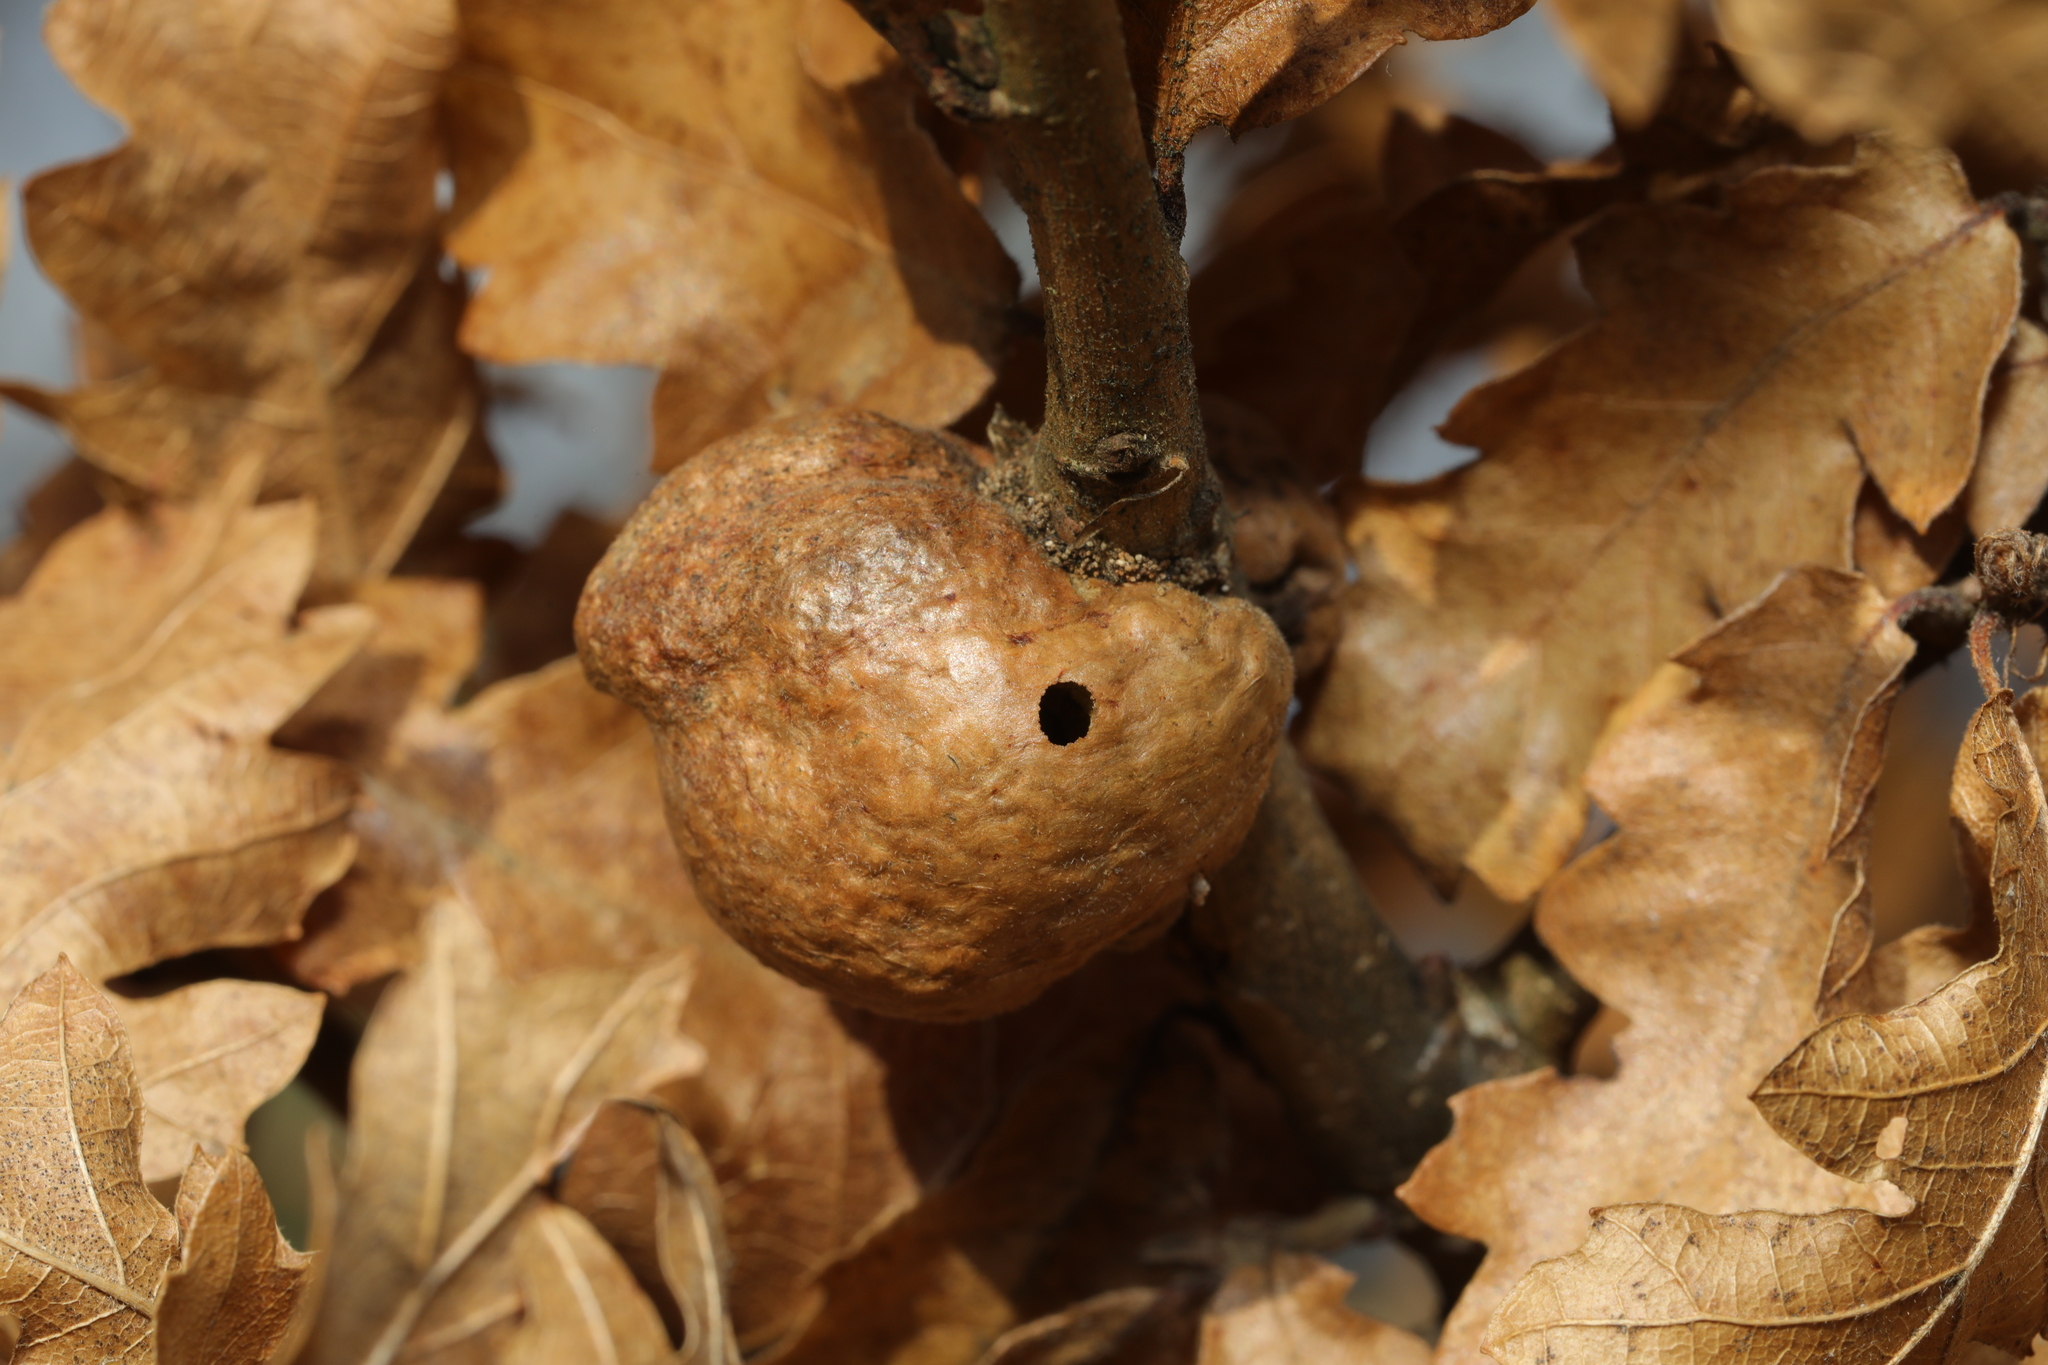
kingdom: Animalia
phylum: Arthropoda
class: Insecta
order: Hymenoptera
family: Cynipidae
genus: Aphelonyx
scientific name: Aphelonyx cerricola
